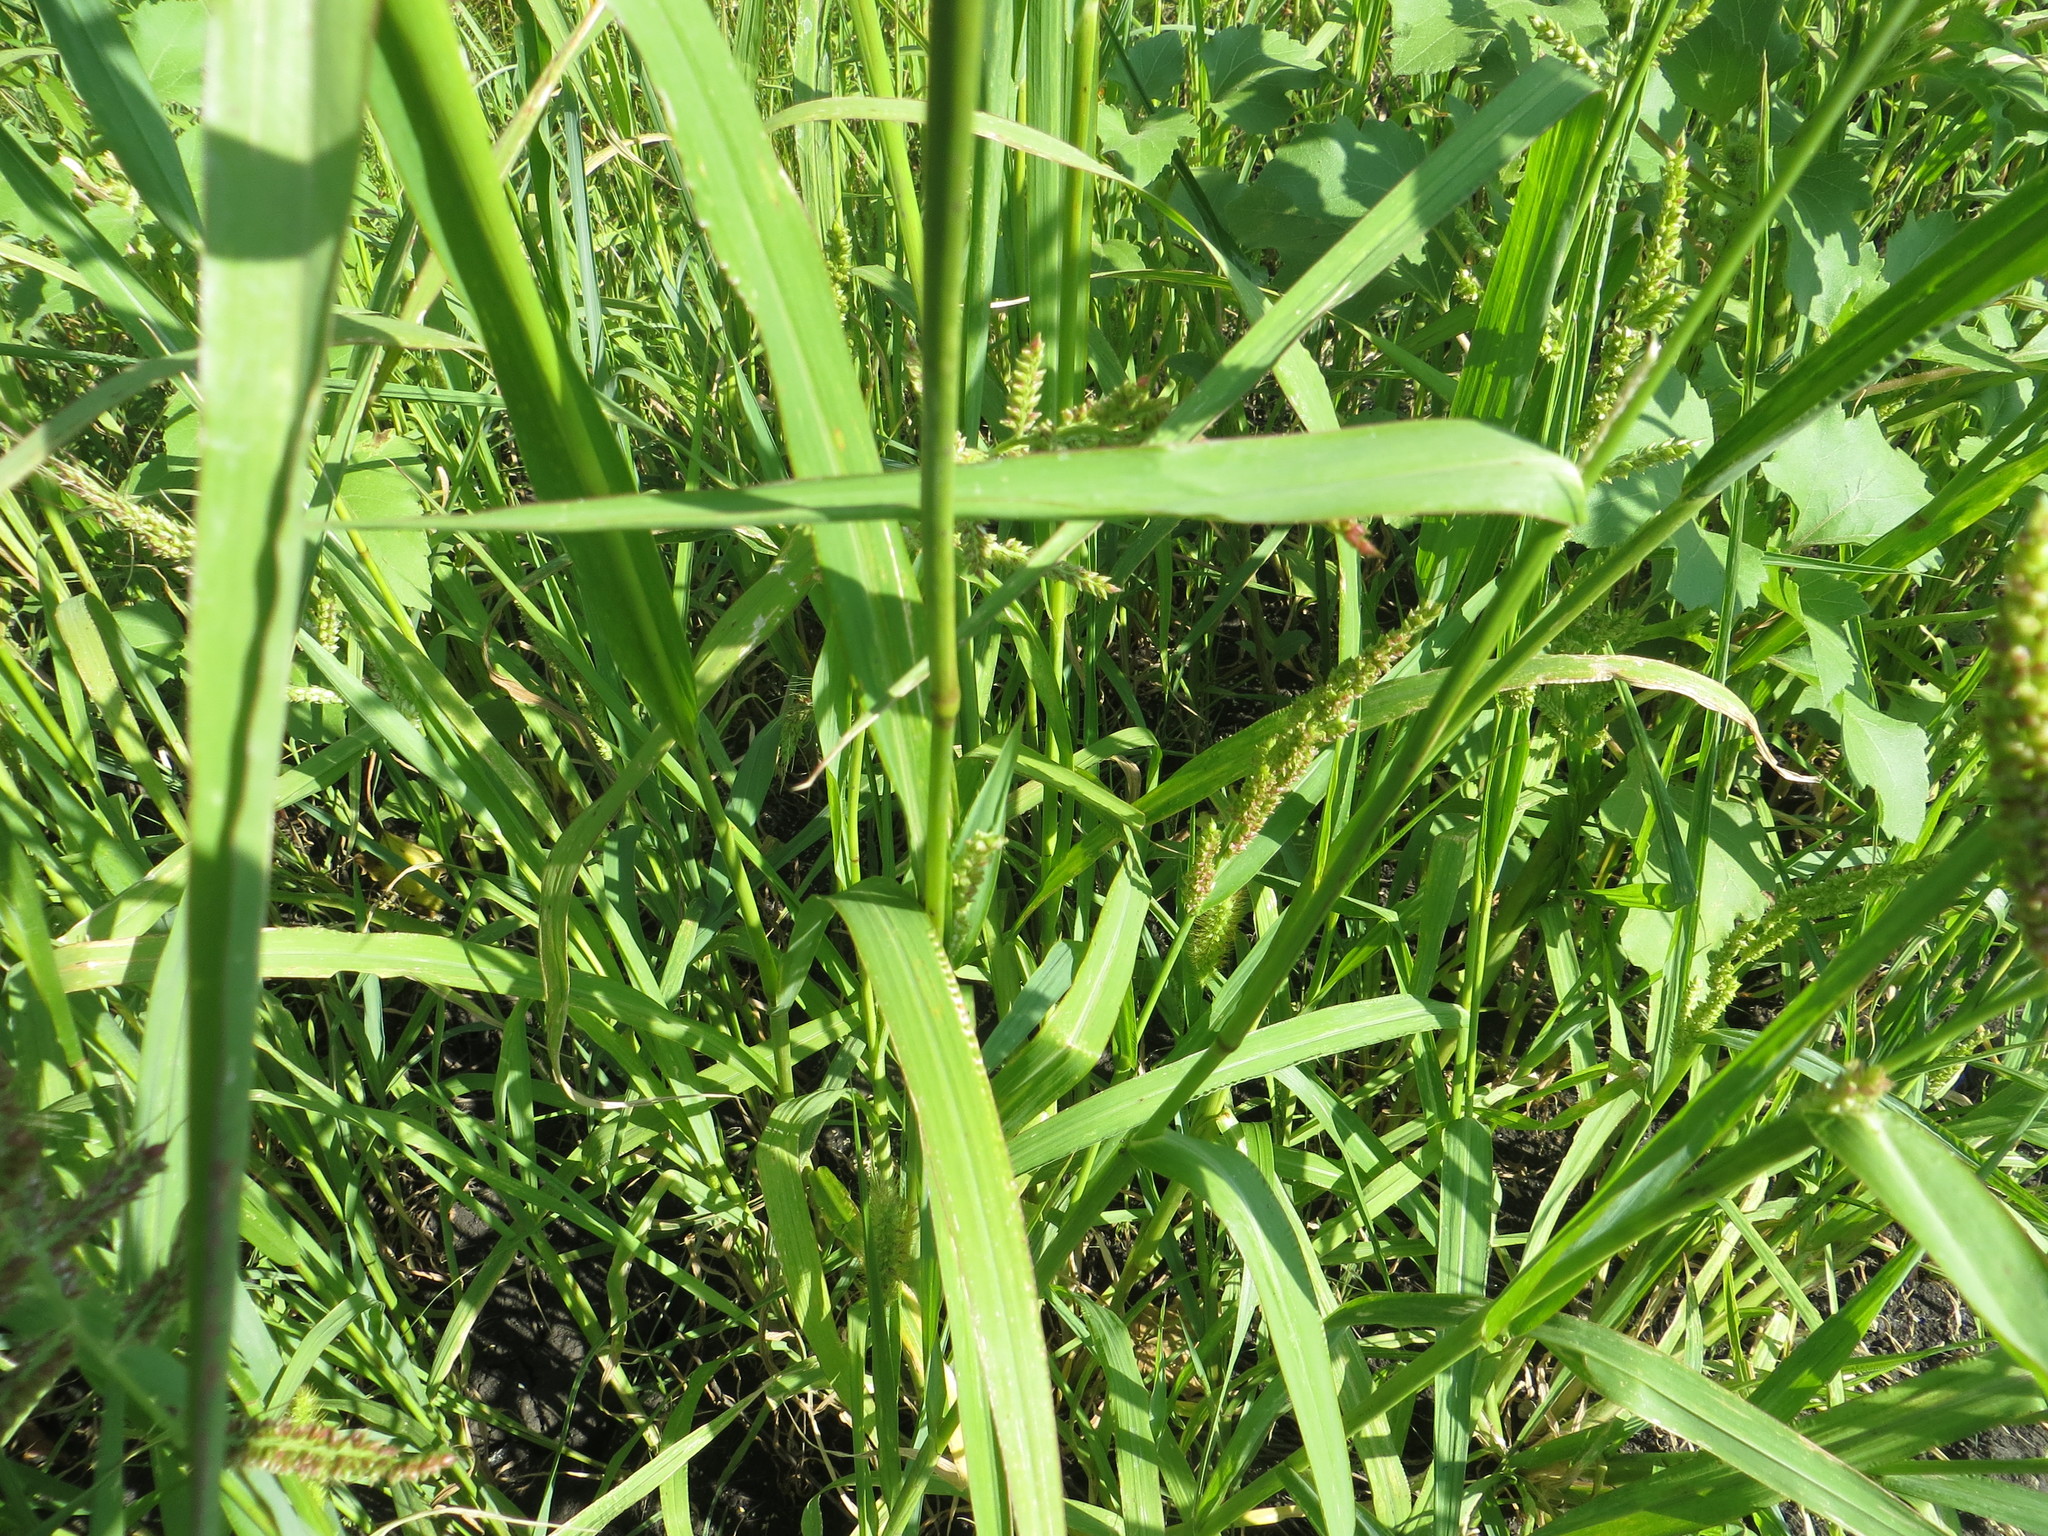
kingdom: Plantae
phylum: Tracheophyta
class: Liliopsida
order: Poales
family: Poaceae
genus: Echinochloa
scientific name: Echinochloa crus-galli
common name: Cockspur
